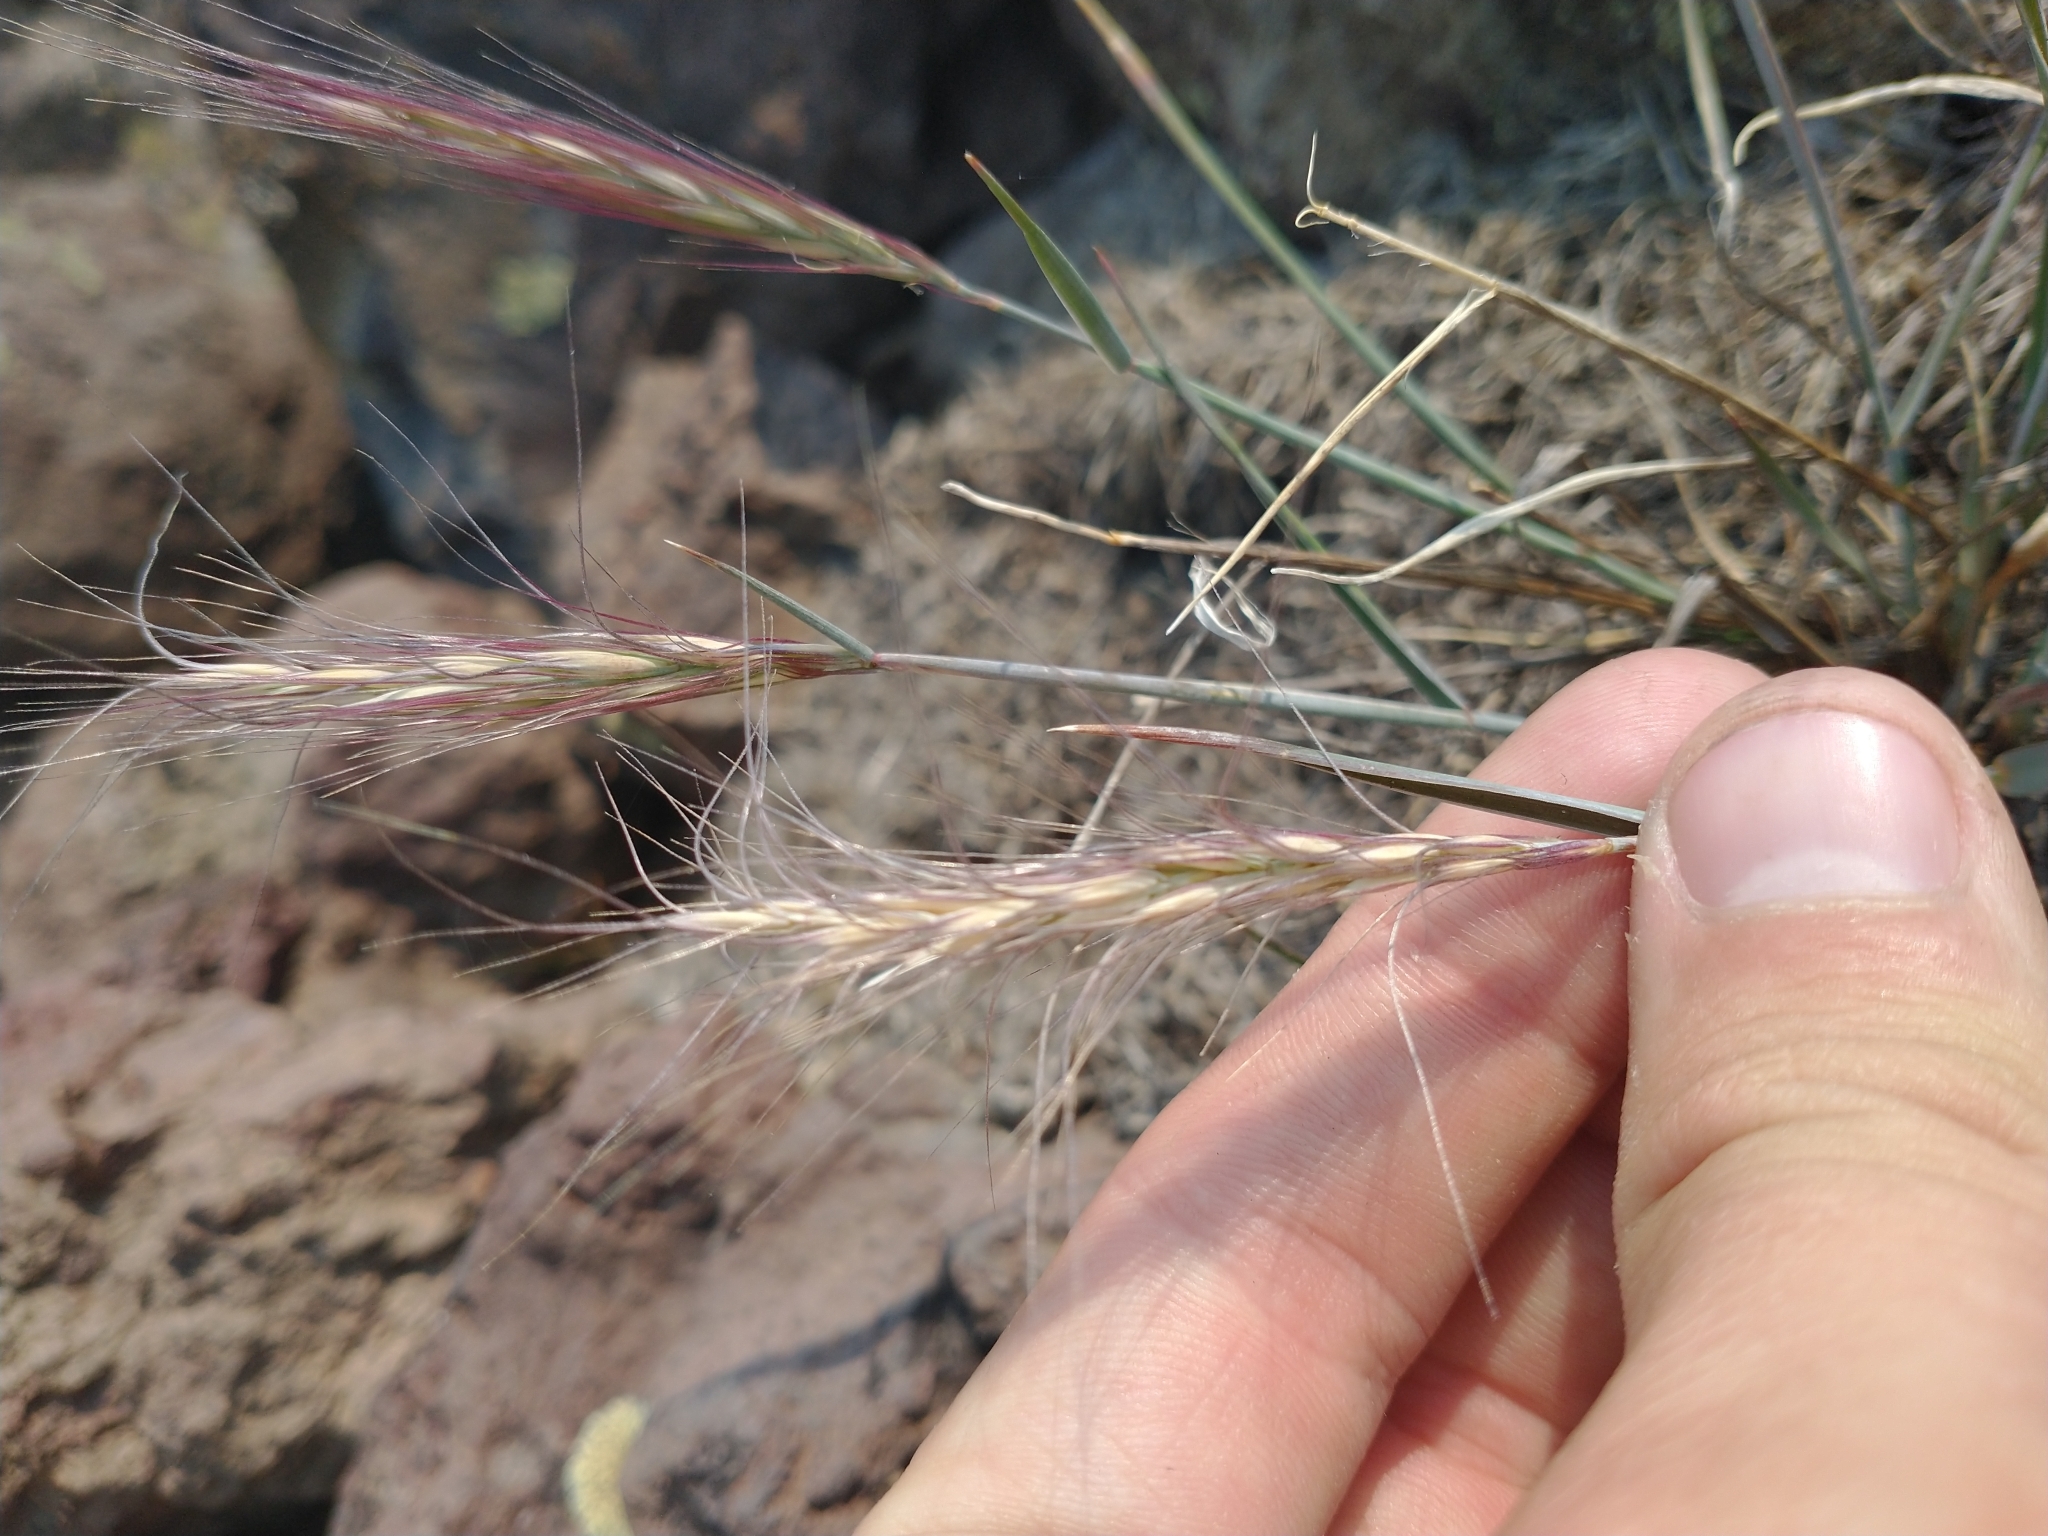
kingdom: Plantae
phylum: Tracheophyta
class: Liliopsida
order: Poales
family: Poaceae
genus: Elymus
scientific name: Elymus elymoides
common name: Bottlebrush squirreltail
